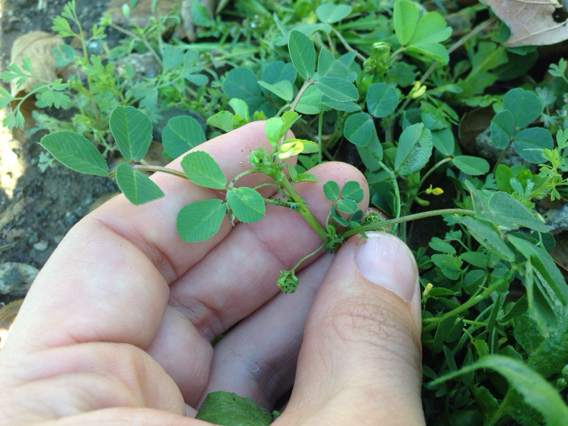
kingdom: Plantae
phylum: Tracheophyta
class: Magnoliopsida
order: Fabales
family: Fabaceae
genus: Medicago
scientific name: Medicago polymorpha
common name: Burclover
